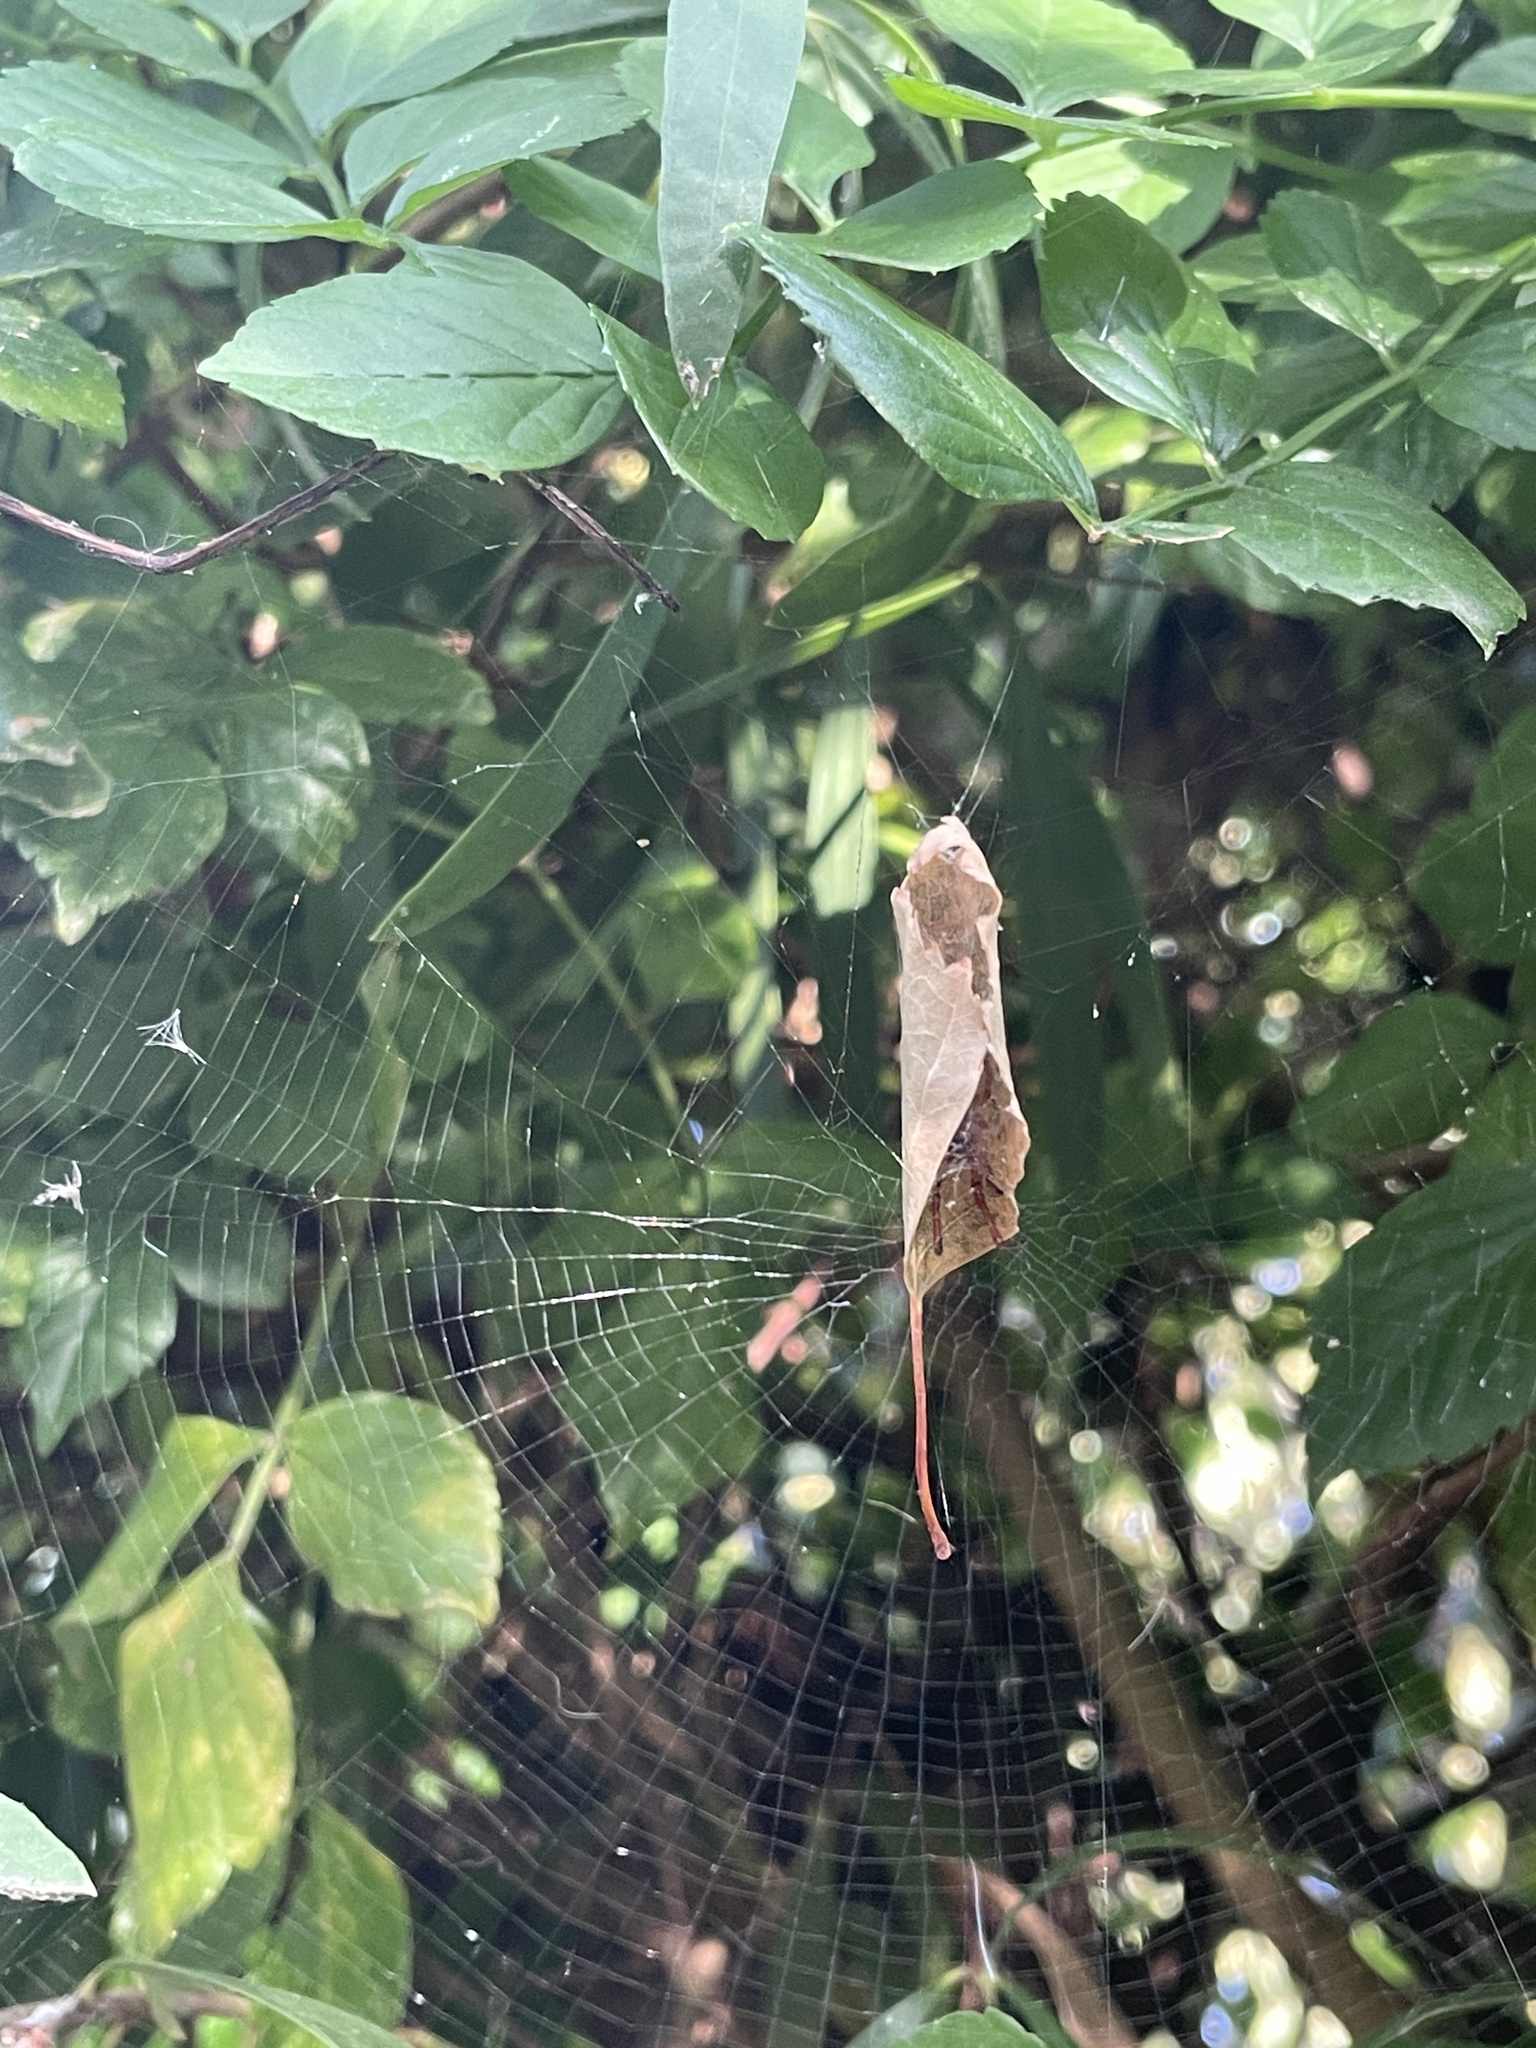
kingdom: Animalia
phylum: Arthropoda
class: Arachnida
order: Araneae
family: Araneidae
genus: Phonognatha
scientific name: Phonognatha graeffei
